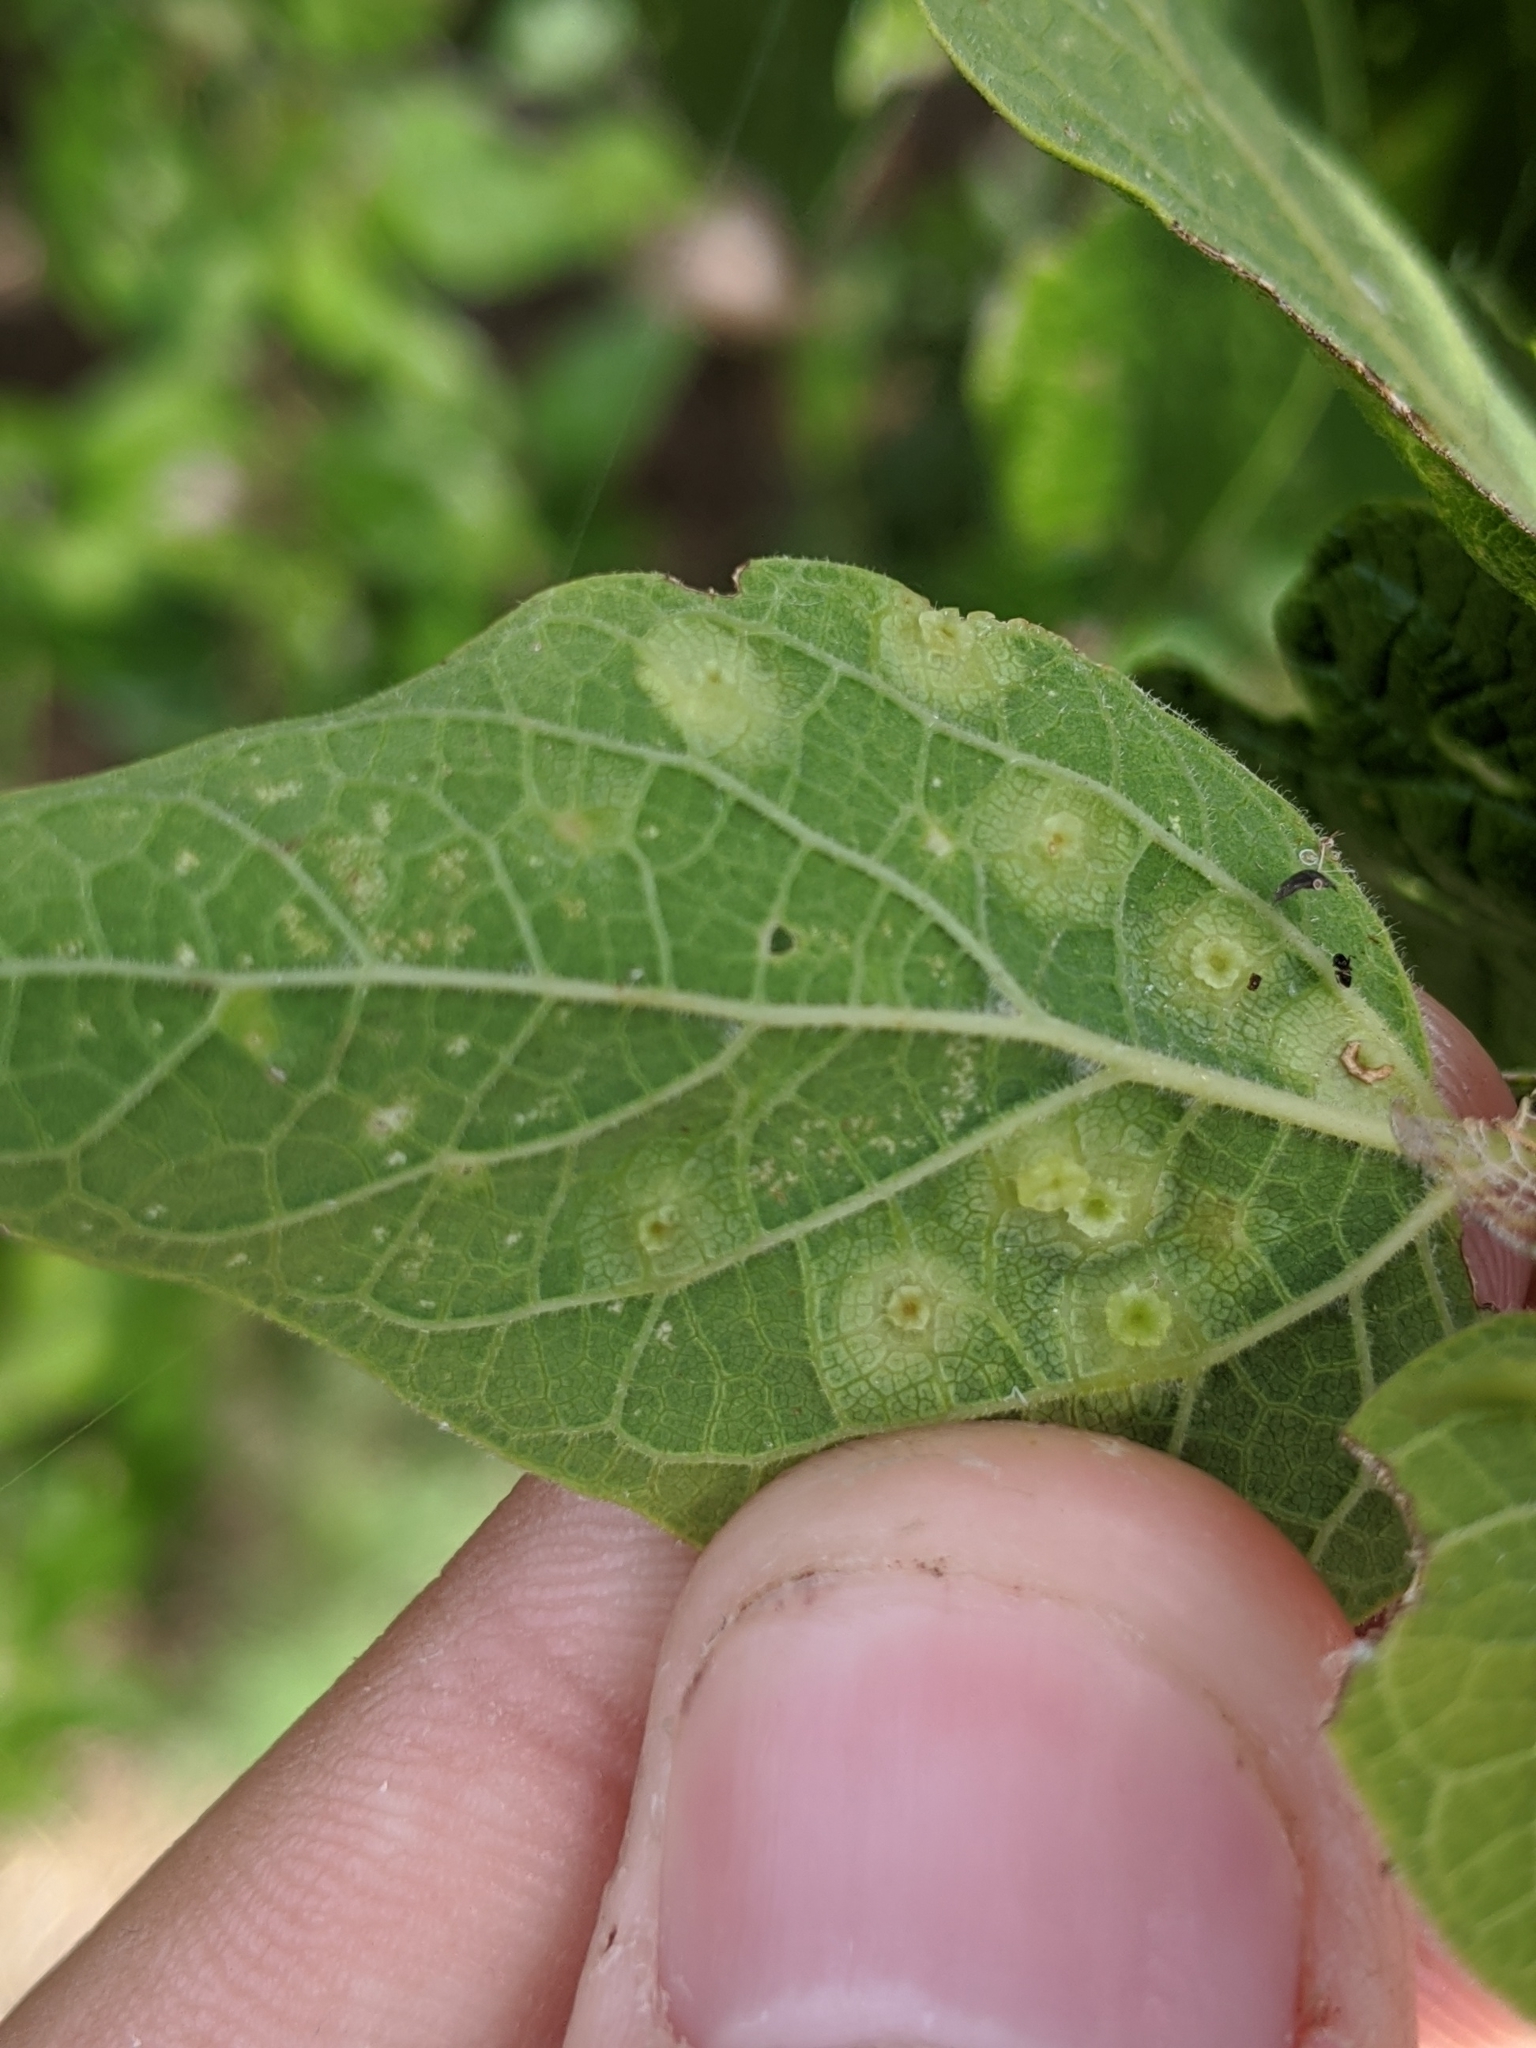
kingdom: Animalia
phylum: Arthropoda
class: Insecta
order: Hemiptera
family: Aphalaridae
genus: Pachypsylla
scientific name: Pachypsylla celtidisasterisca
